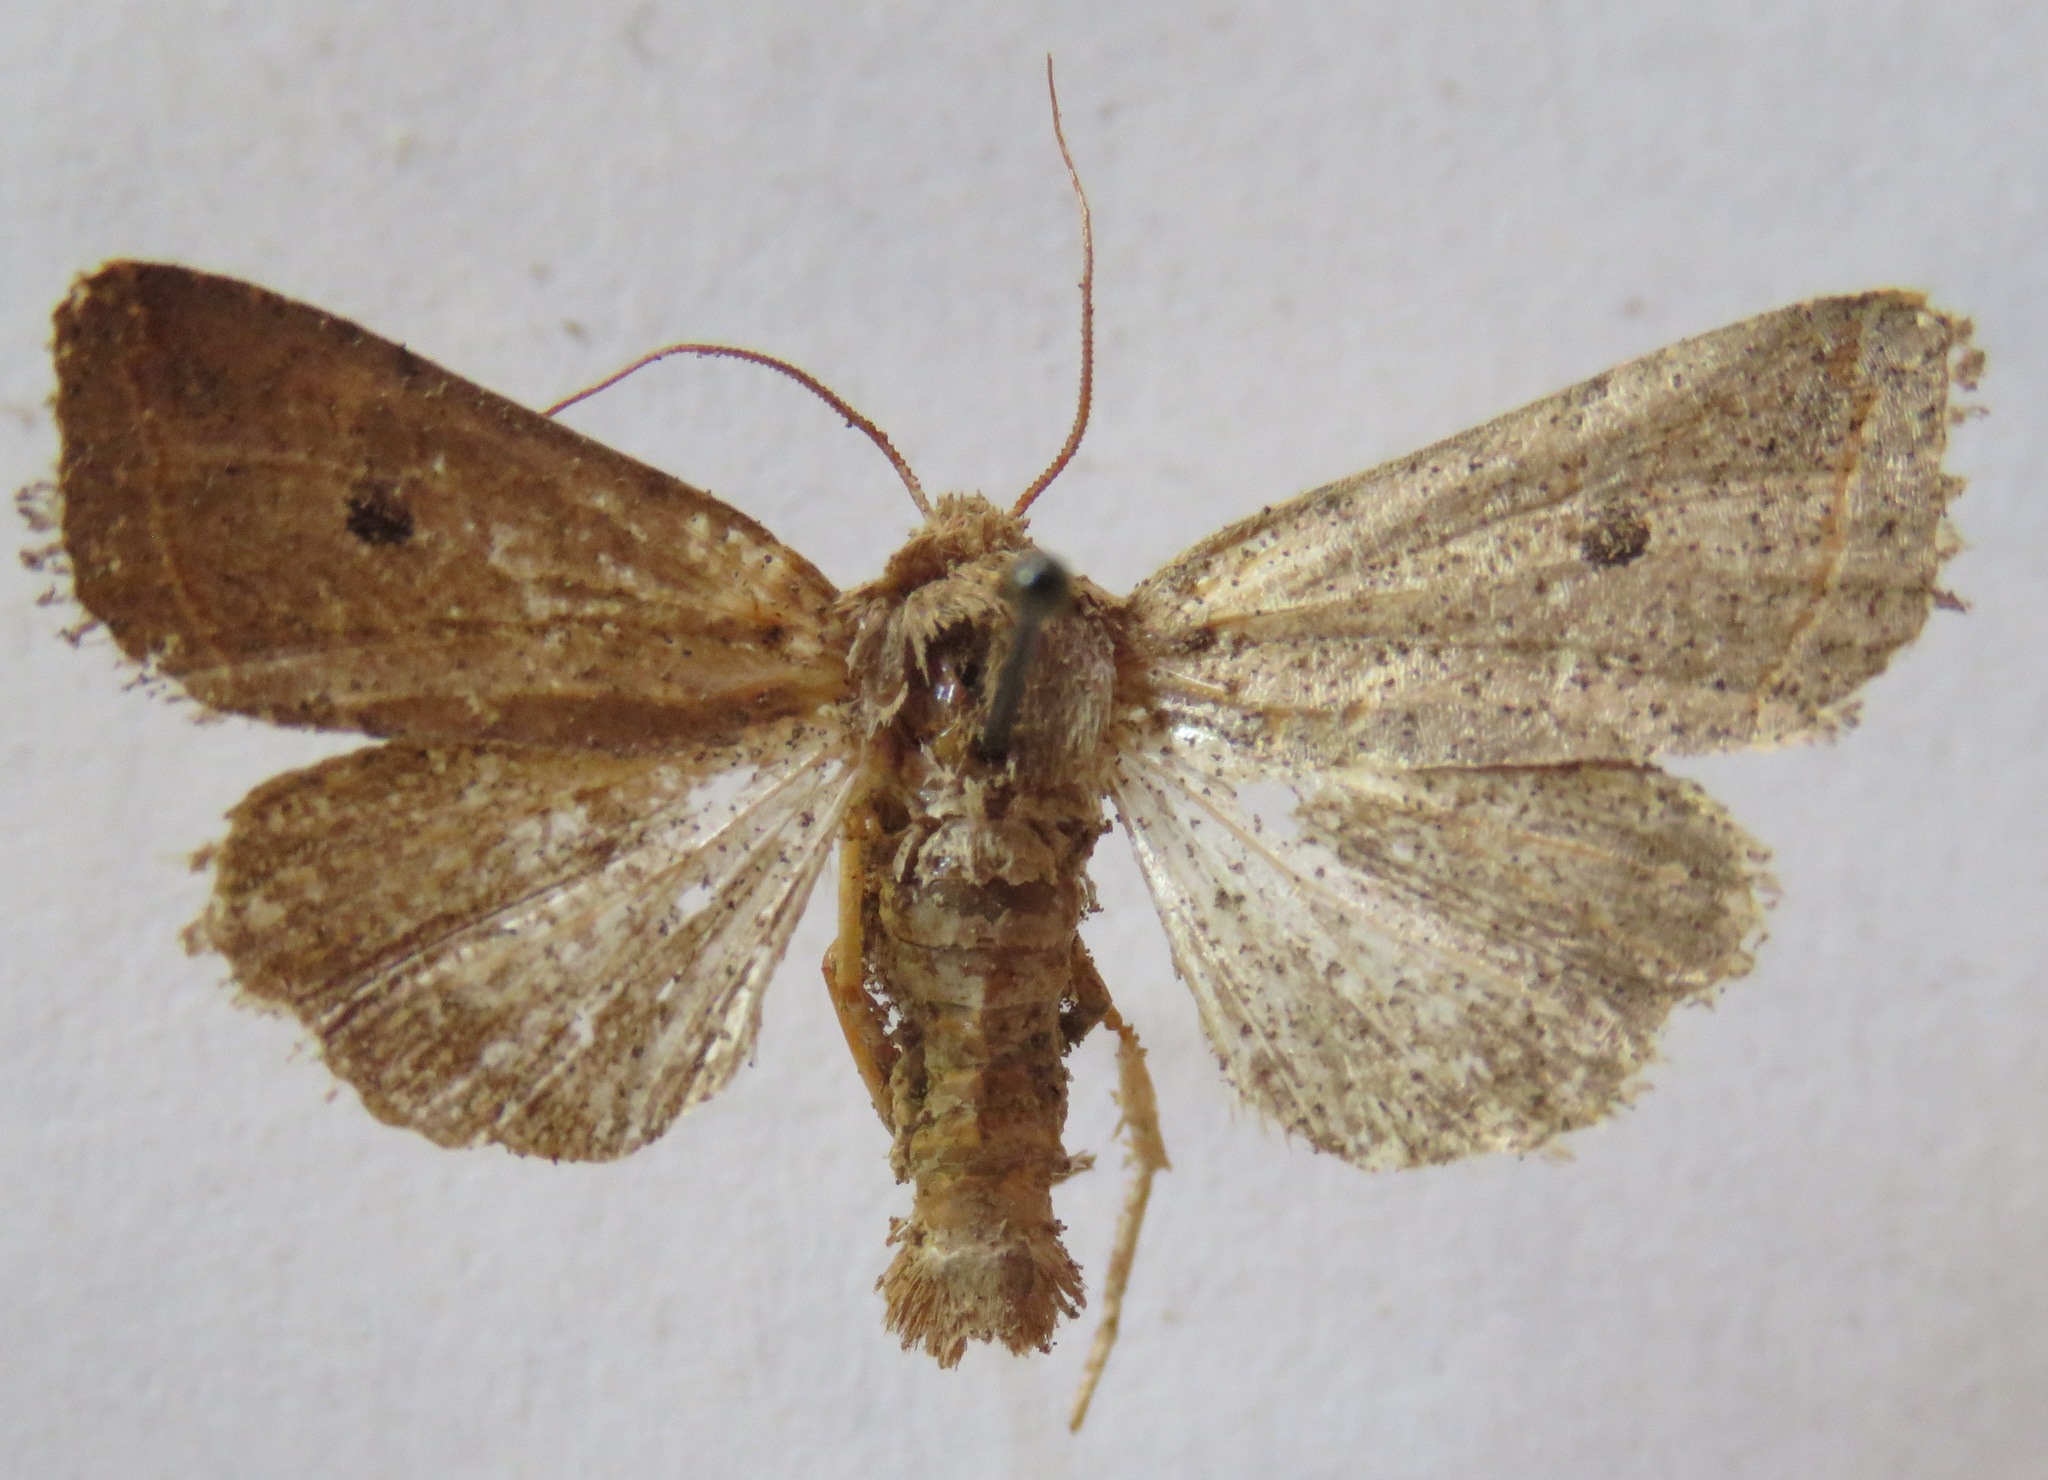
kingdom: Animalia
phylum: Arthropoda
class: Insecta
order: Lepidoptera
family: Noctuidae
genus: Agrochola
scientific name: Agrochola lota
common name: Red-line quaker
